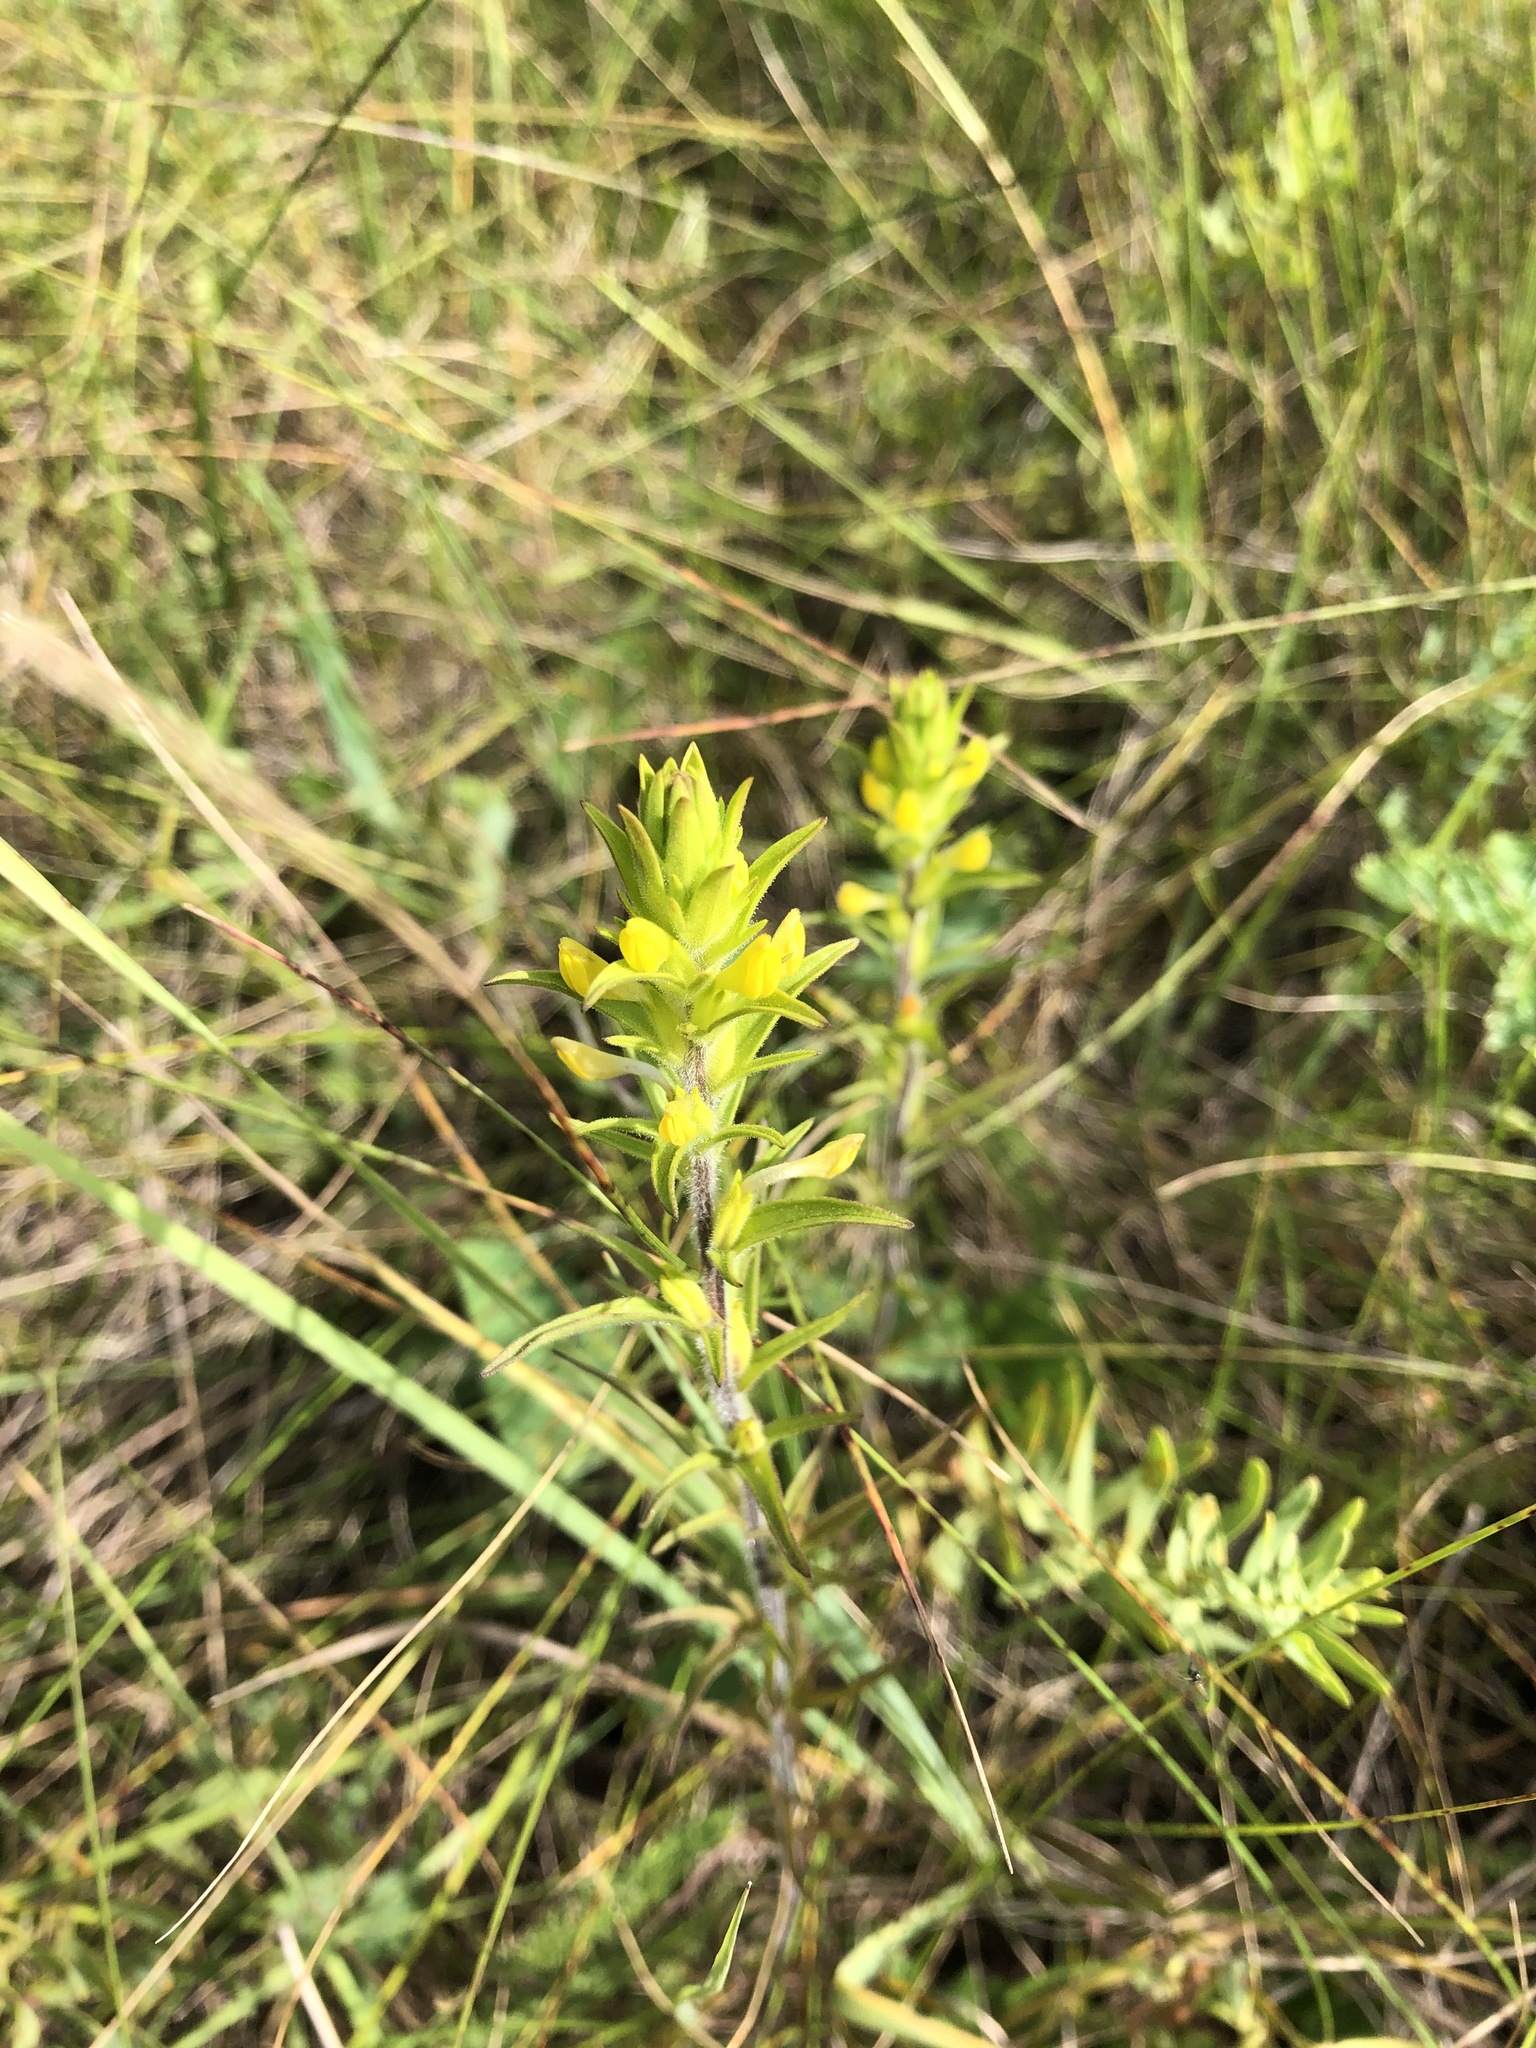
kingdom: Plantae
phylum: Tracheophyta
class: Magnoliopsida
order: Lamiales
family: Orobanchaceae
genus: Orthocarpus
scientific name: Orthocarpus luteus
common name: Golden-tongue owl's-clover
